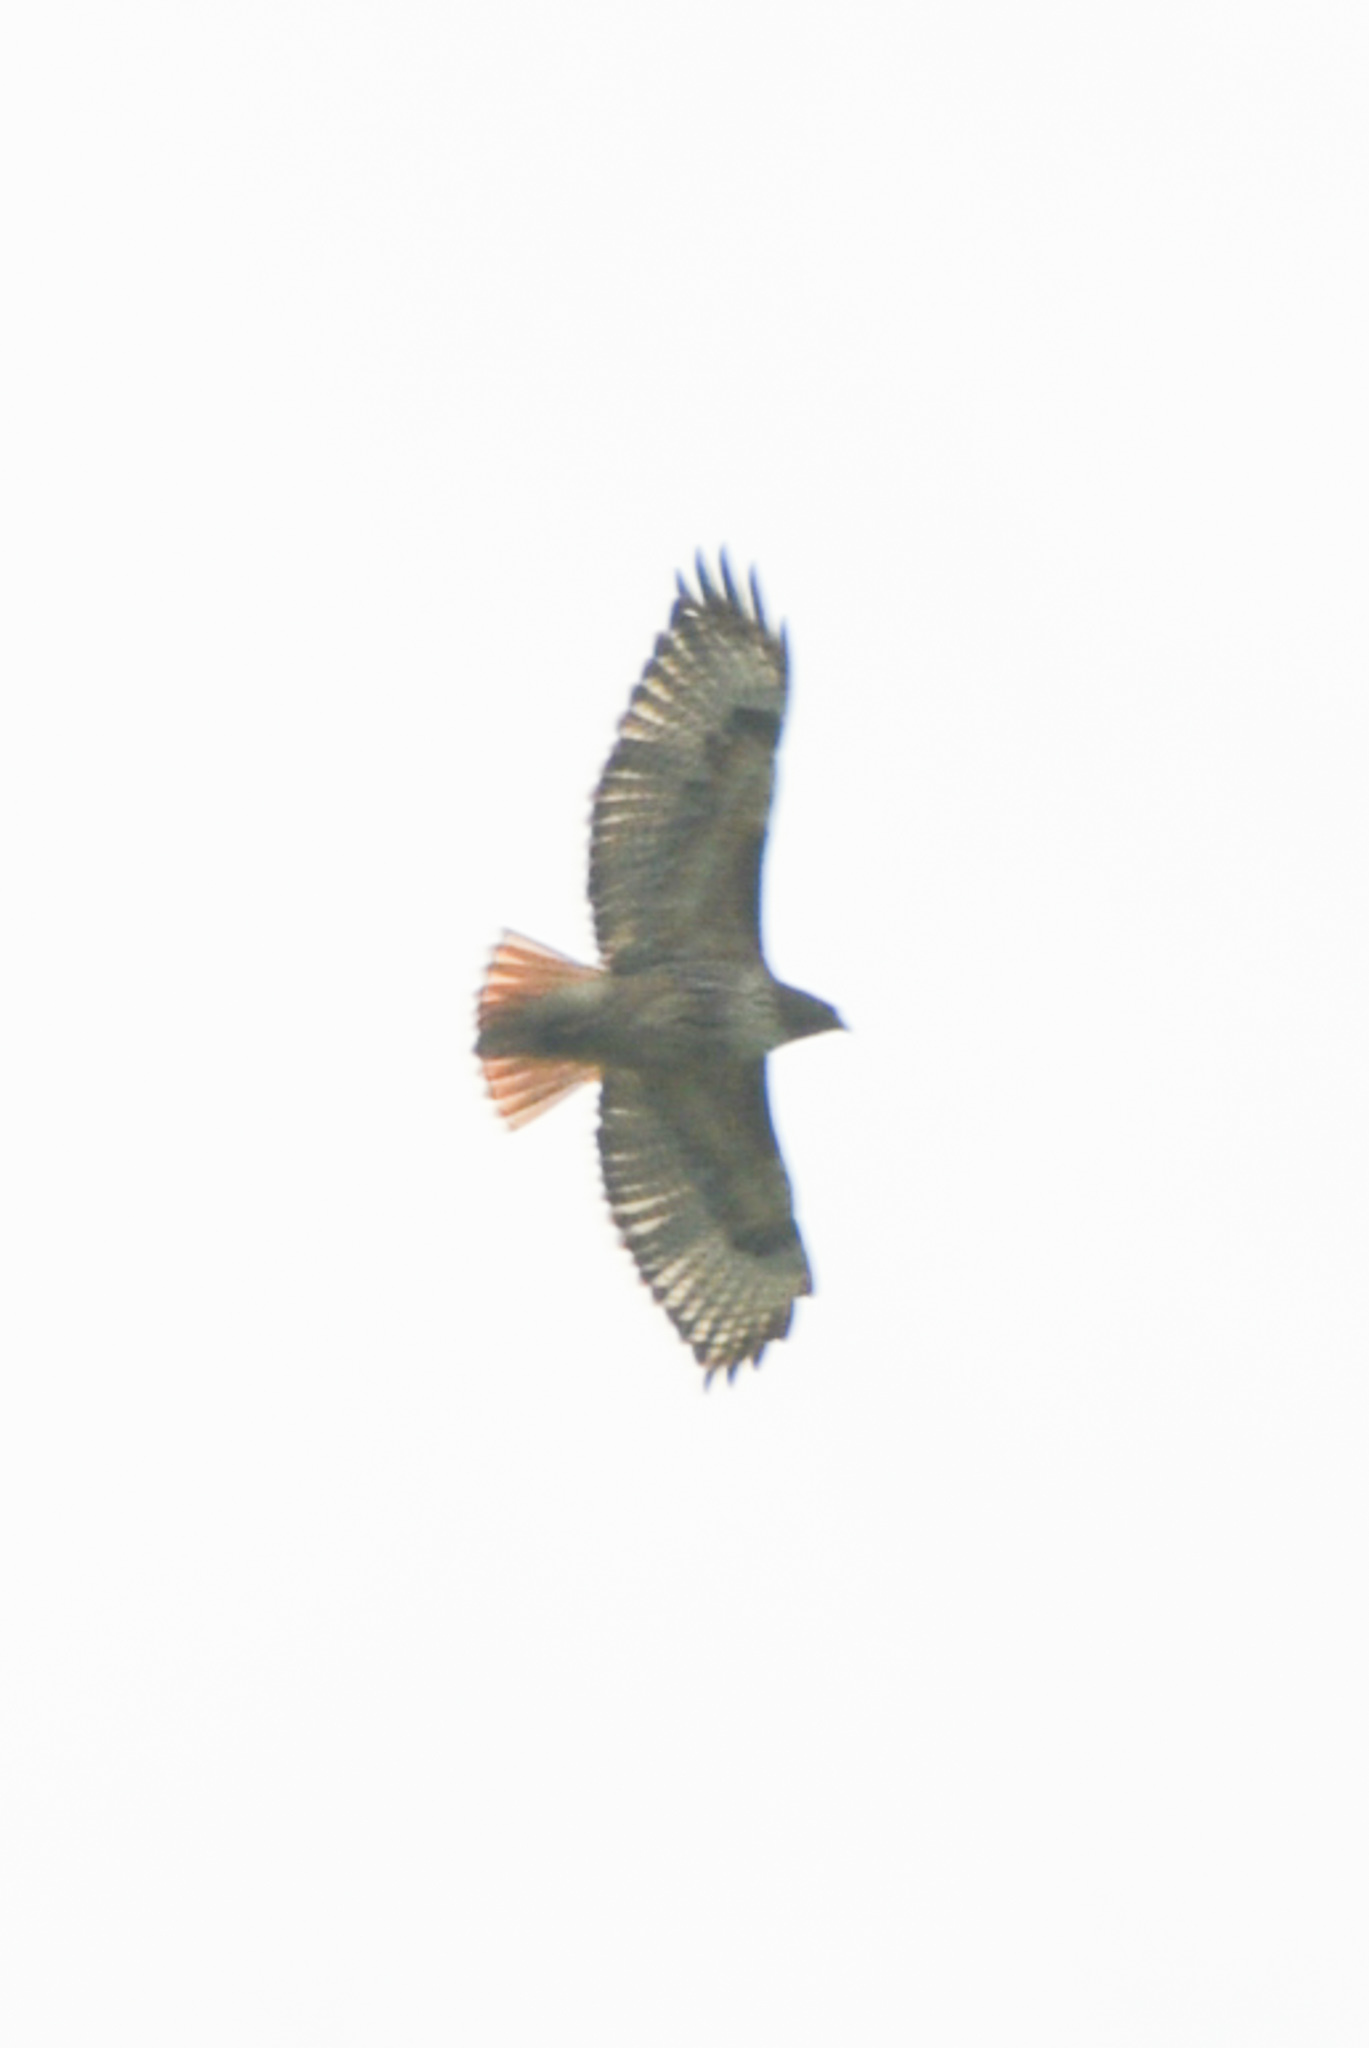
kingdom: Animalia
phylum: Chordata
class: Aves
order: Accipitriformes
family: Accipitridae
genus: Buteo
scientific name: Buteo jamaicensis
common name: Red-tailed hawk
